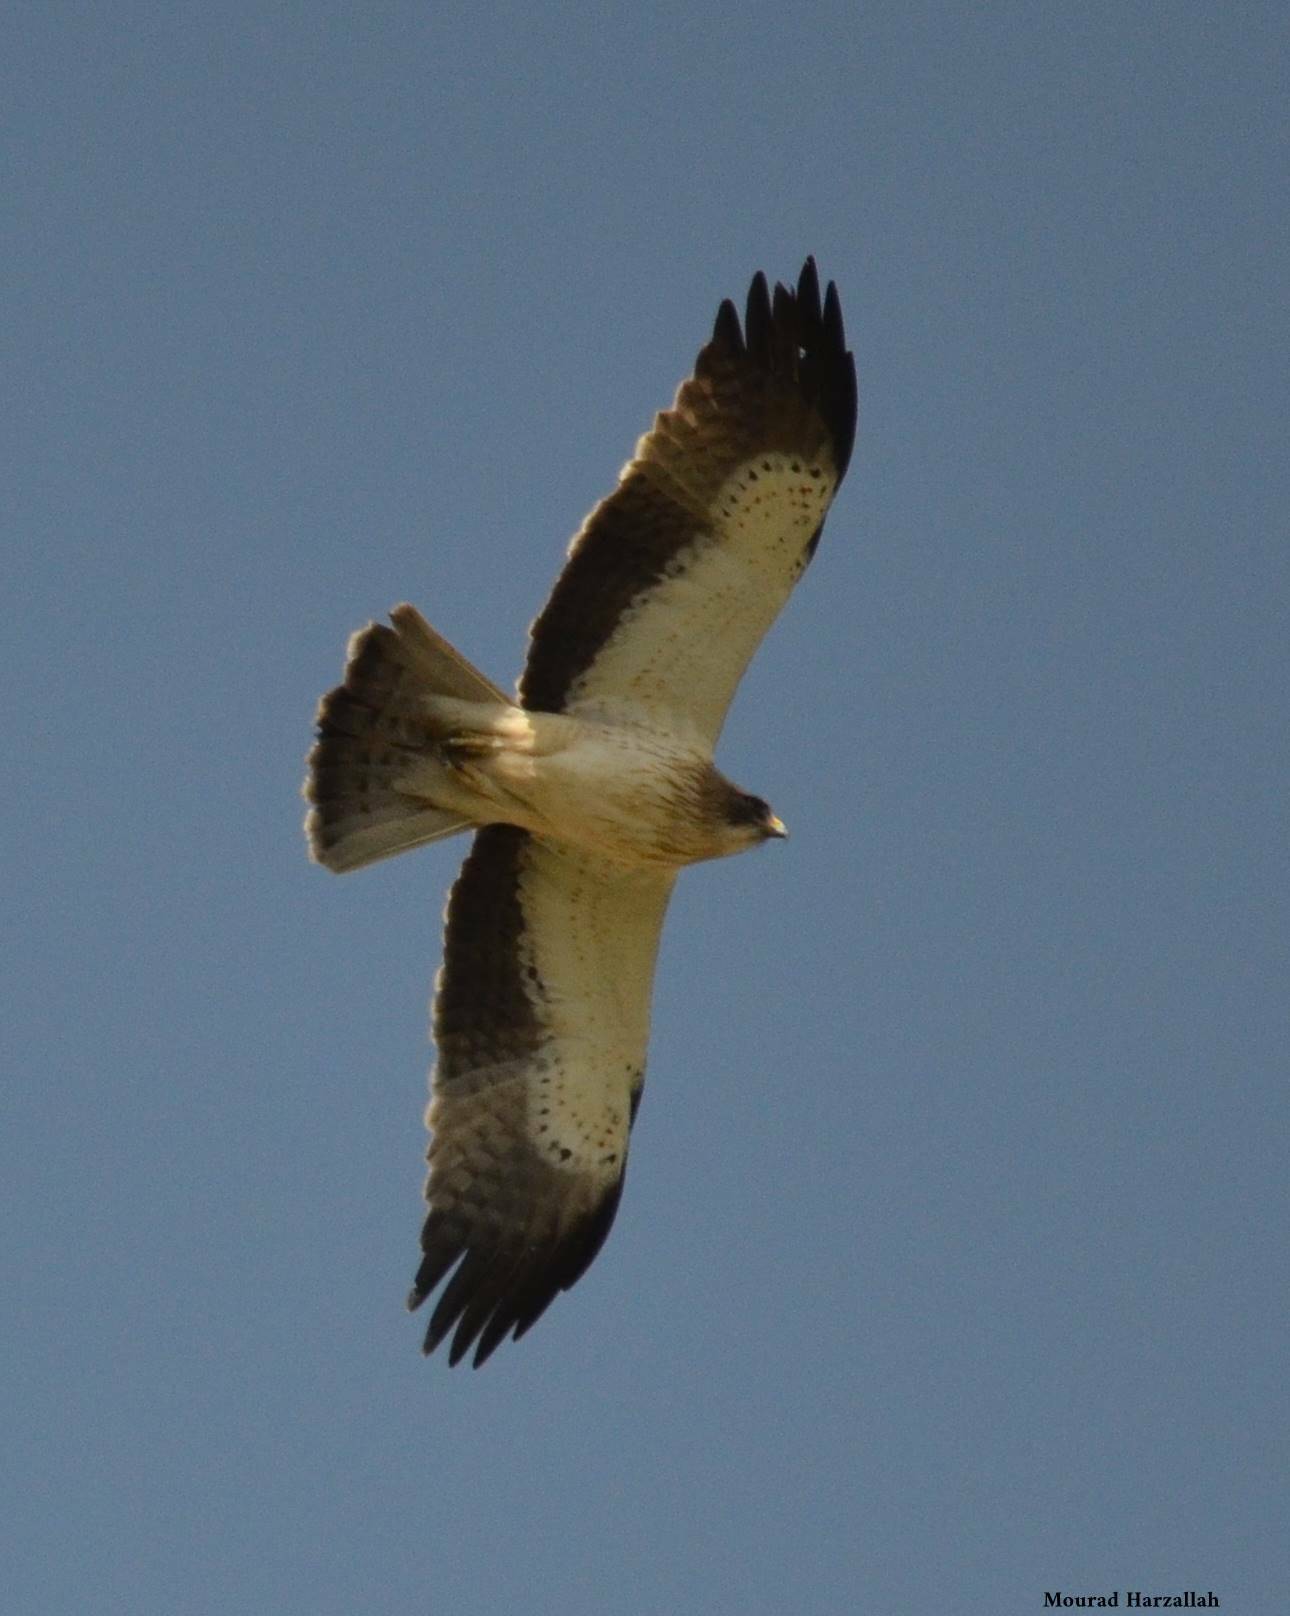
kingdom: Animalia
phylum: Chordata
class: Aves
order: Accipitriformes
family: Accipitridae
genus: Hieraaetus
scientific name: Hieraaetus pennatus
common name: Booted eagle
